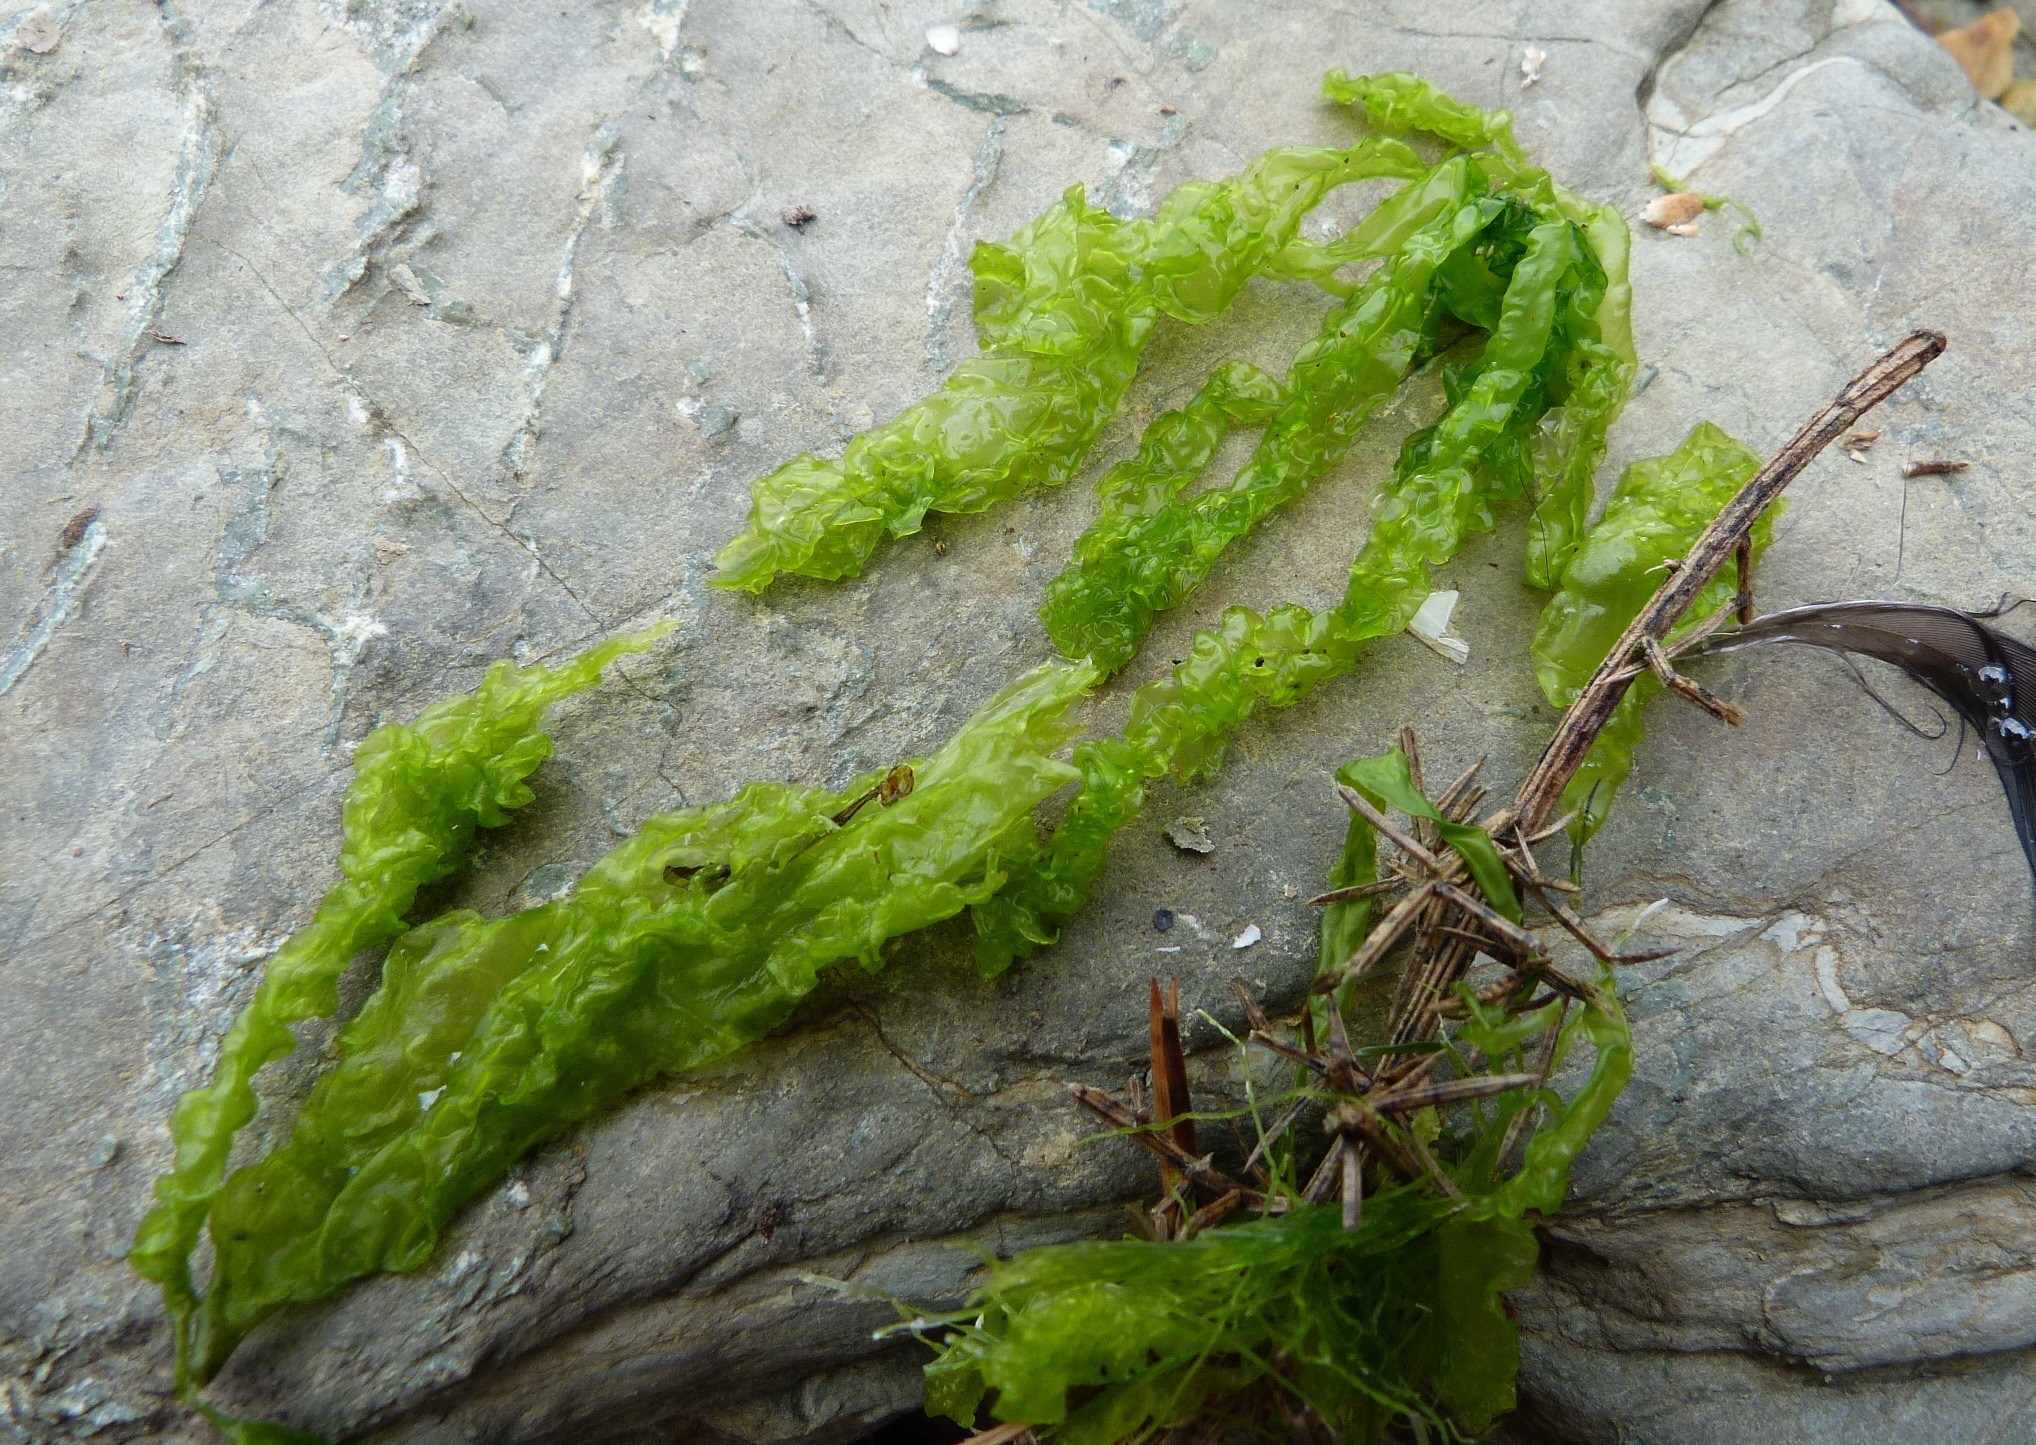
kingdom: Plantae
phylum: Chlorophyta
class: Ulvophyceae
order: Ulvales
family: Ulvaceae
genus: Ulva
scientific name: Ulva
